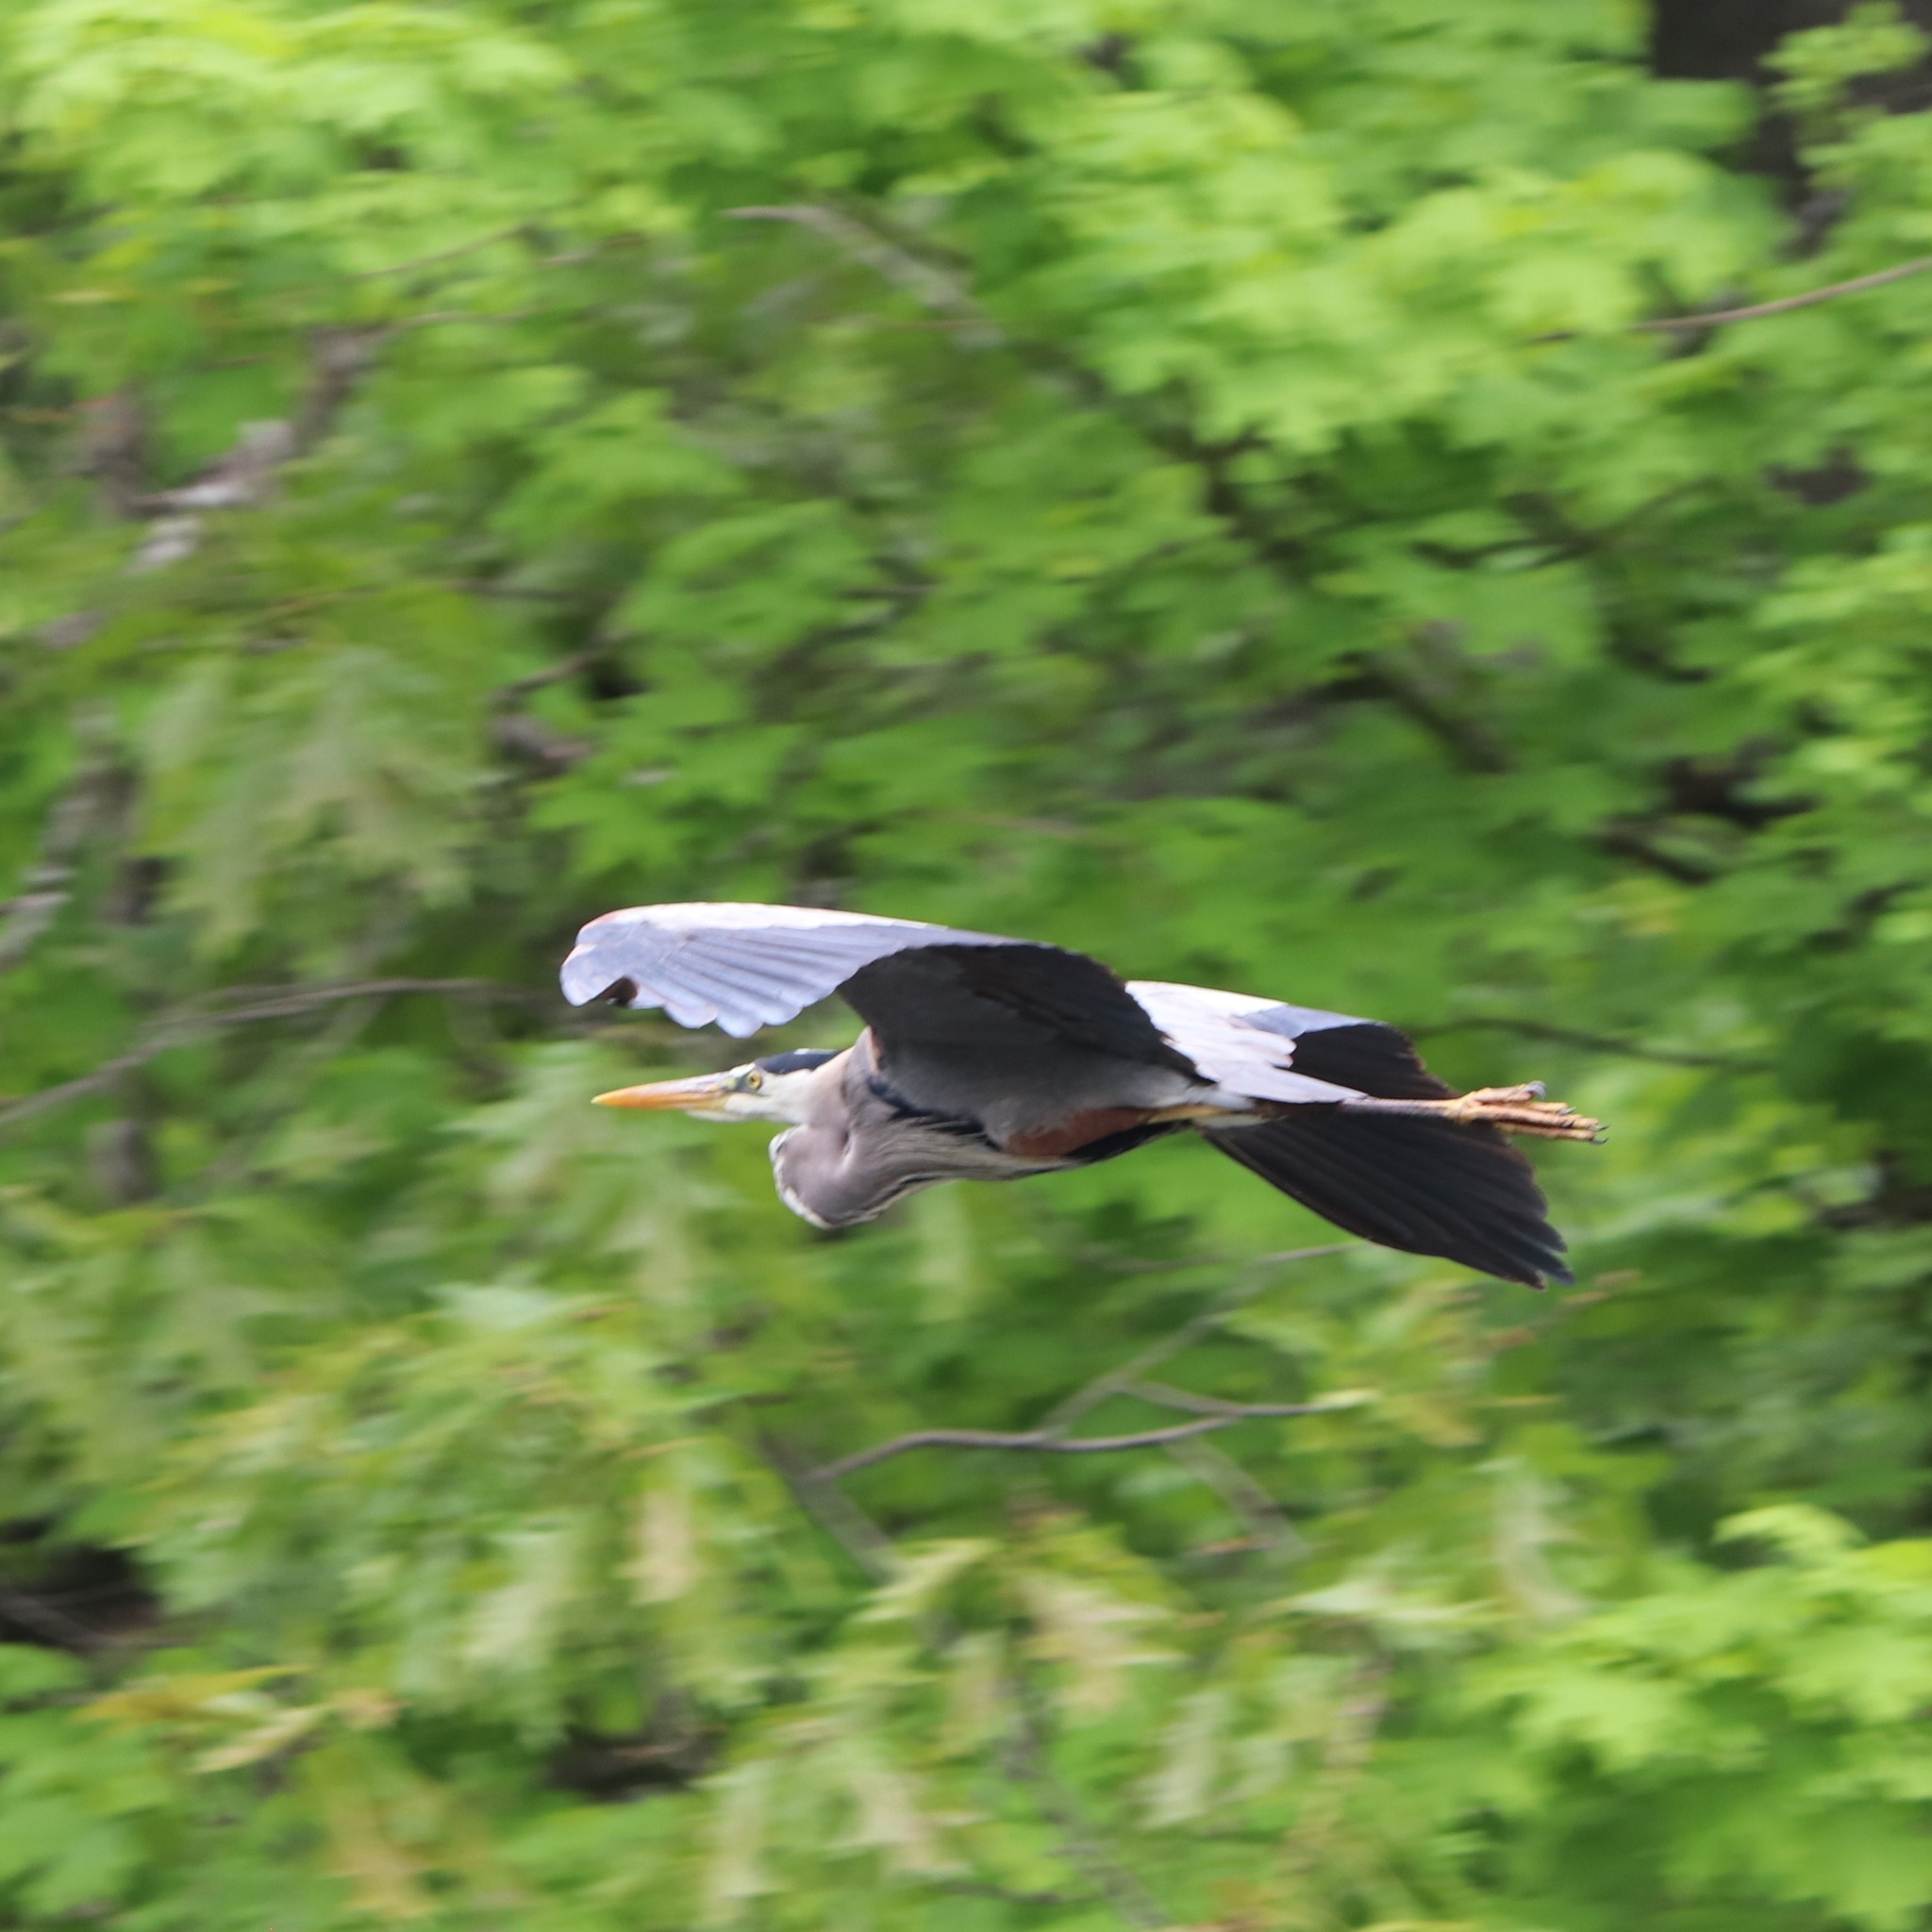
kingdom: Animalia
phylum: Chordata
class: Aves
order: Pelecaniformes
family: Ardeidae
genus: Ardea
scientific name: Ardea herodias
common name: Great blue heron
